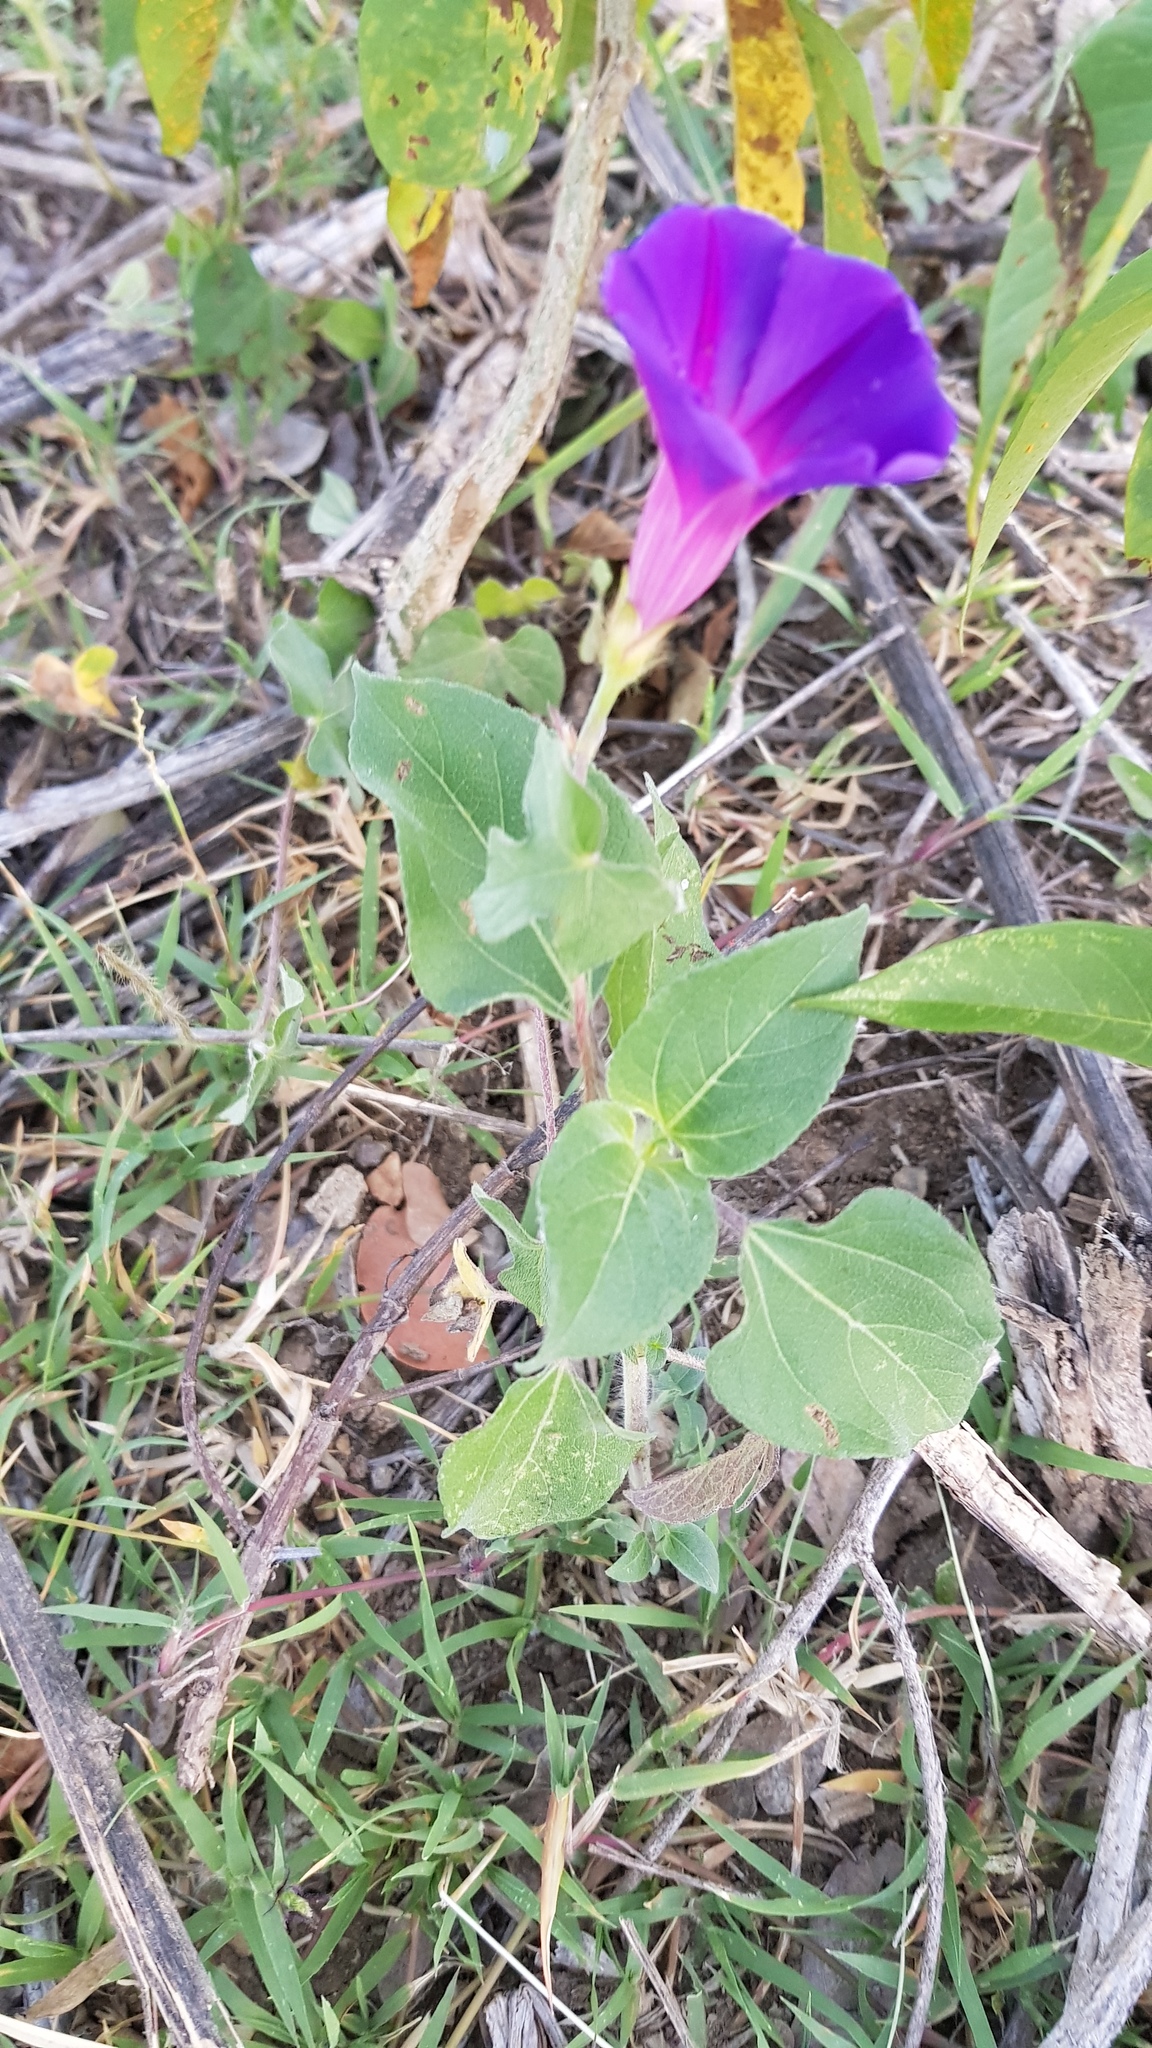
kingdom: Plantae
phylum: Tracheophyta
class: Magnoliopsida
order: Solanales
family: Convolvulaceae
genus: Ipomoea
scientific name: Ipomoea purpurea
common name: Common morning-glory
